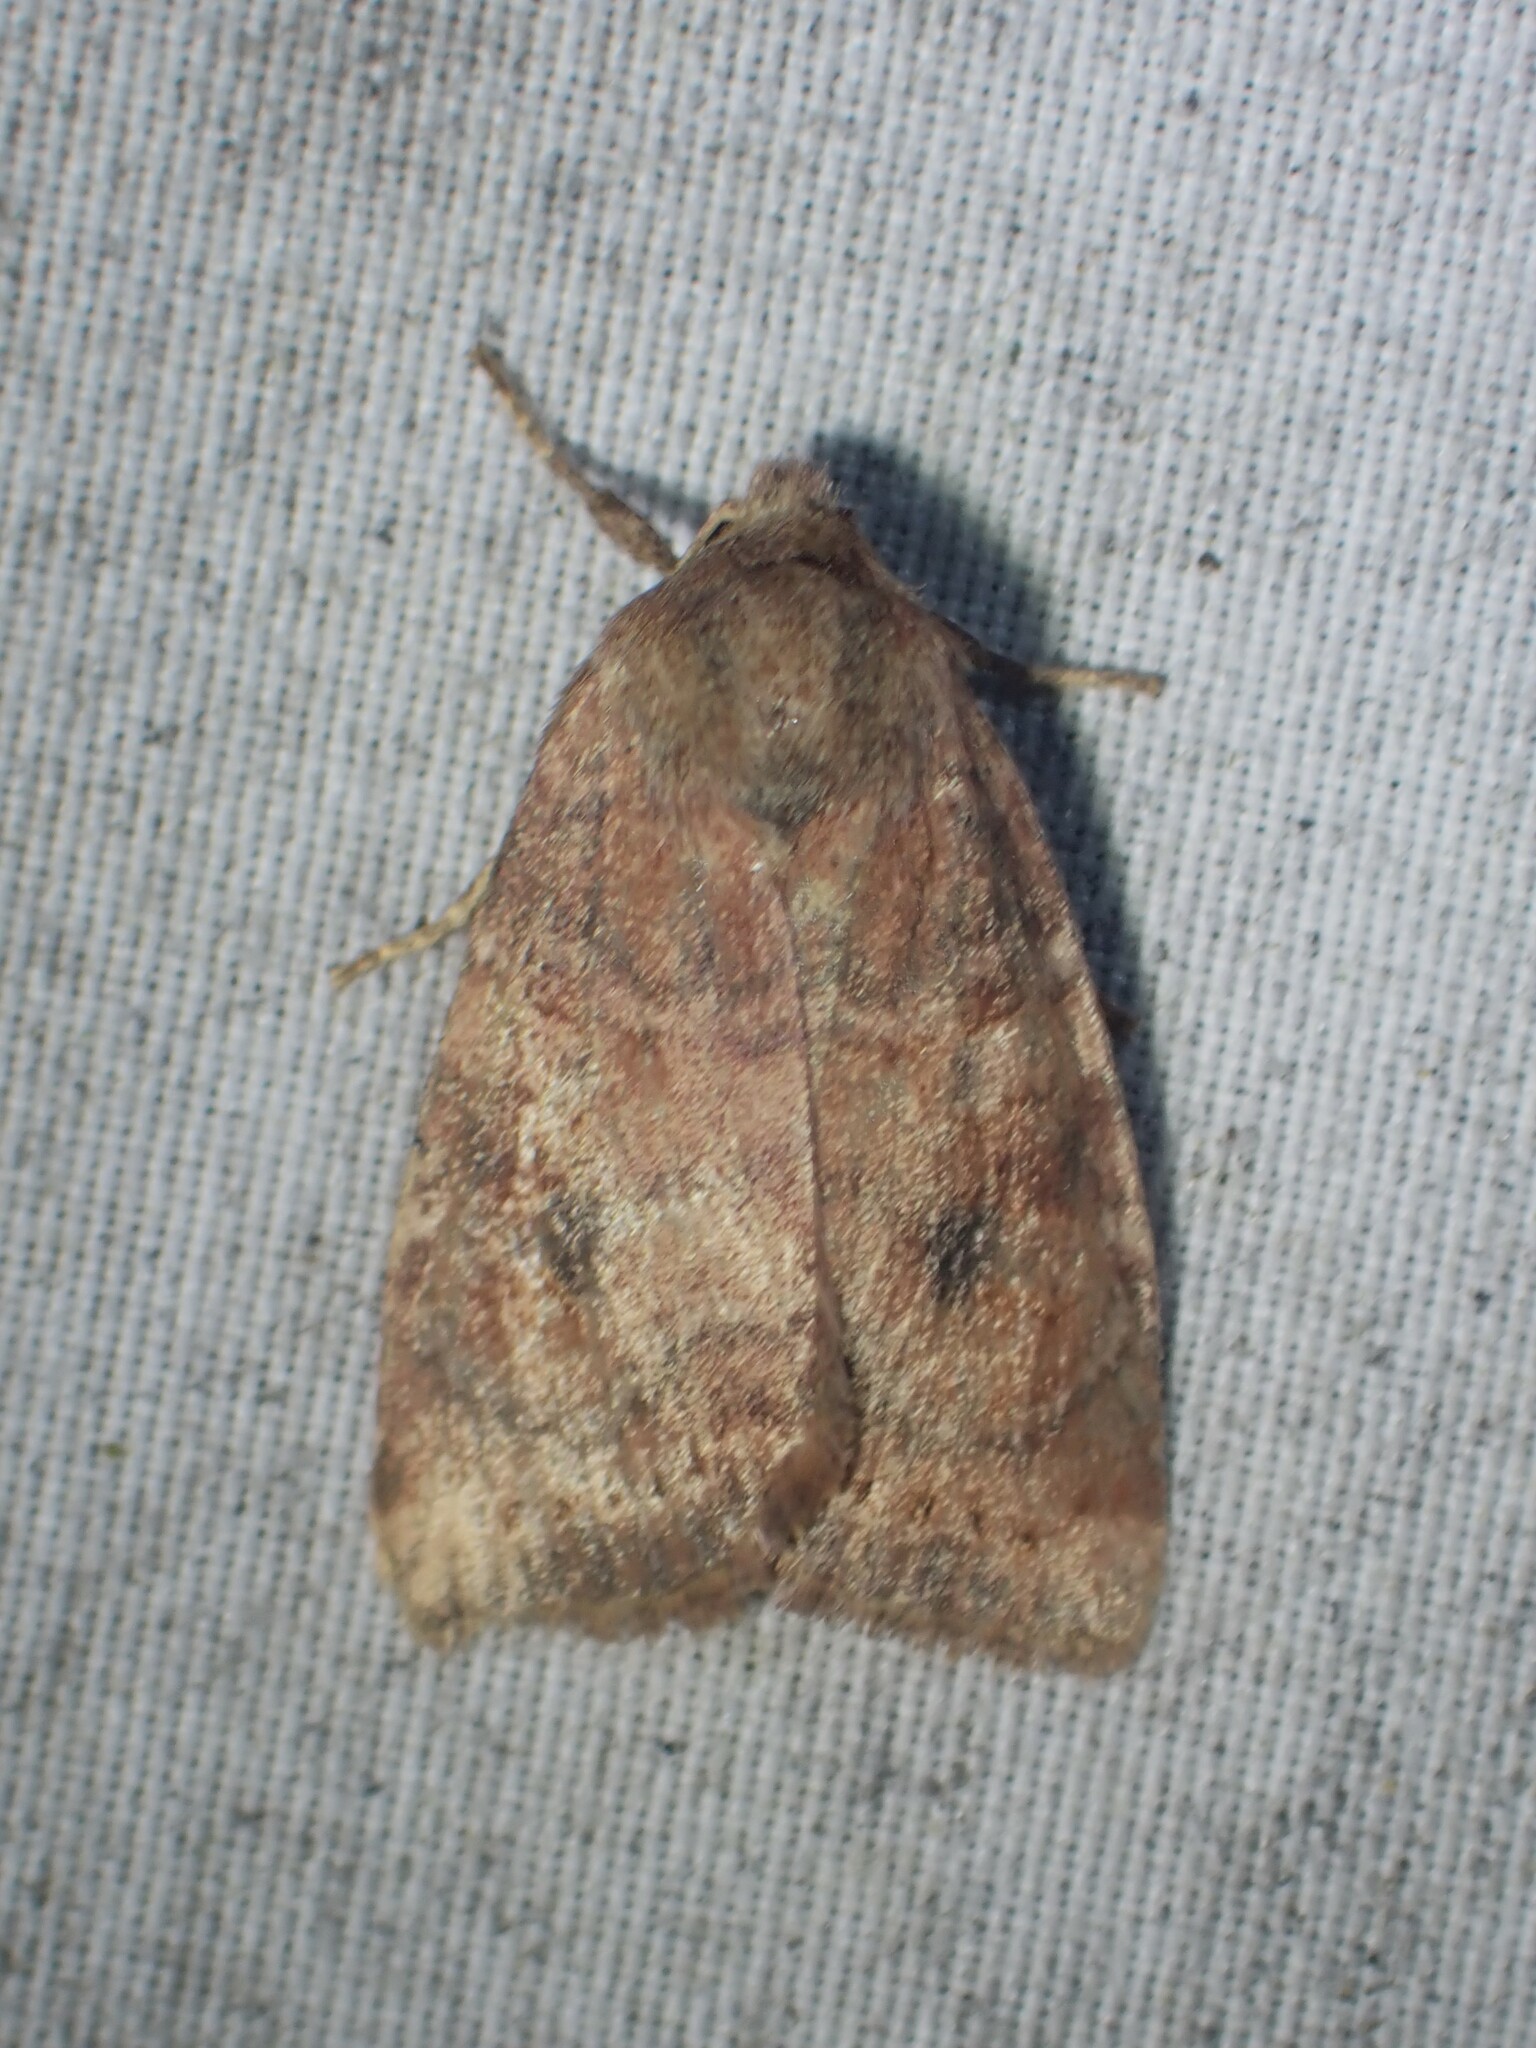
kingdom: Animalia
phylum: Arthropoda
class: Insecta
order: Lepidoptera
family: Noctuidae
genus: Anathix
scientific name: Anathix puta
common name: Puta sallow
